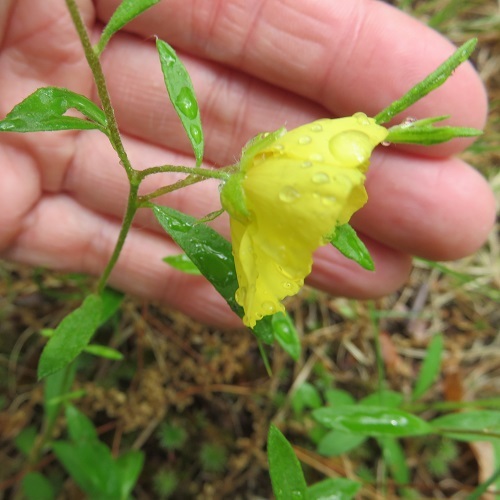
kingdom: Plantae
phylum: Tracheophyta
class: Magnoliopsida
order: Malvales
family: Cistaceae
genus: Crocanthemum
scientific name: Crocanthemum canadense
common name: Canada frostweed
